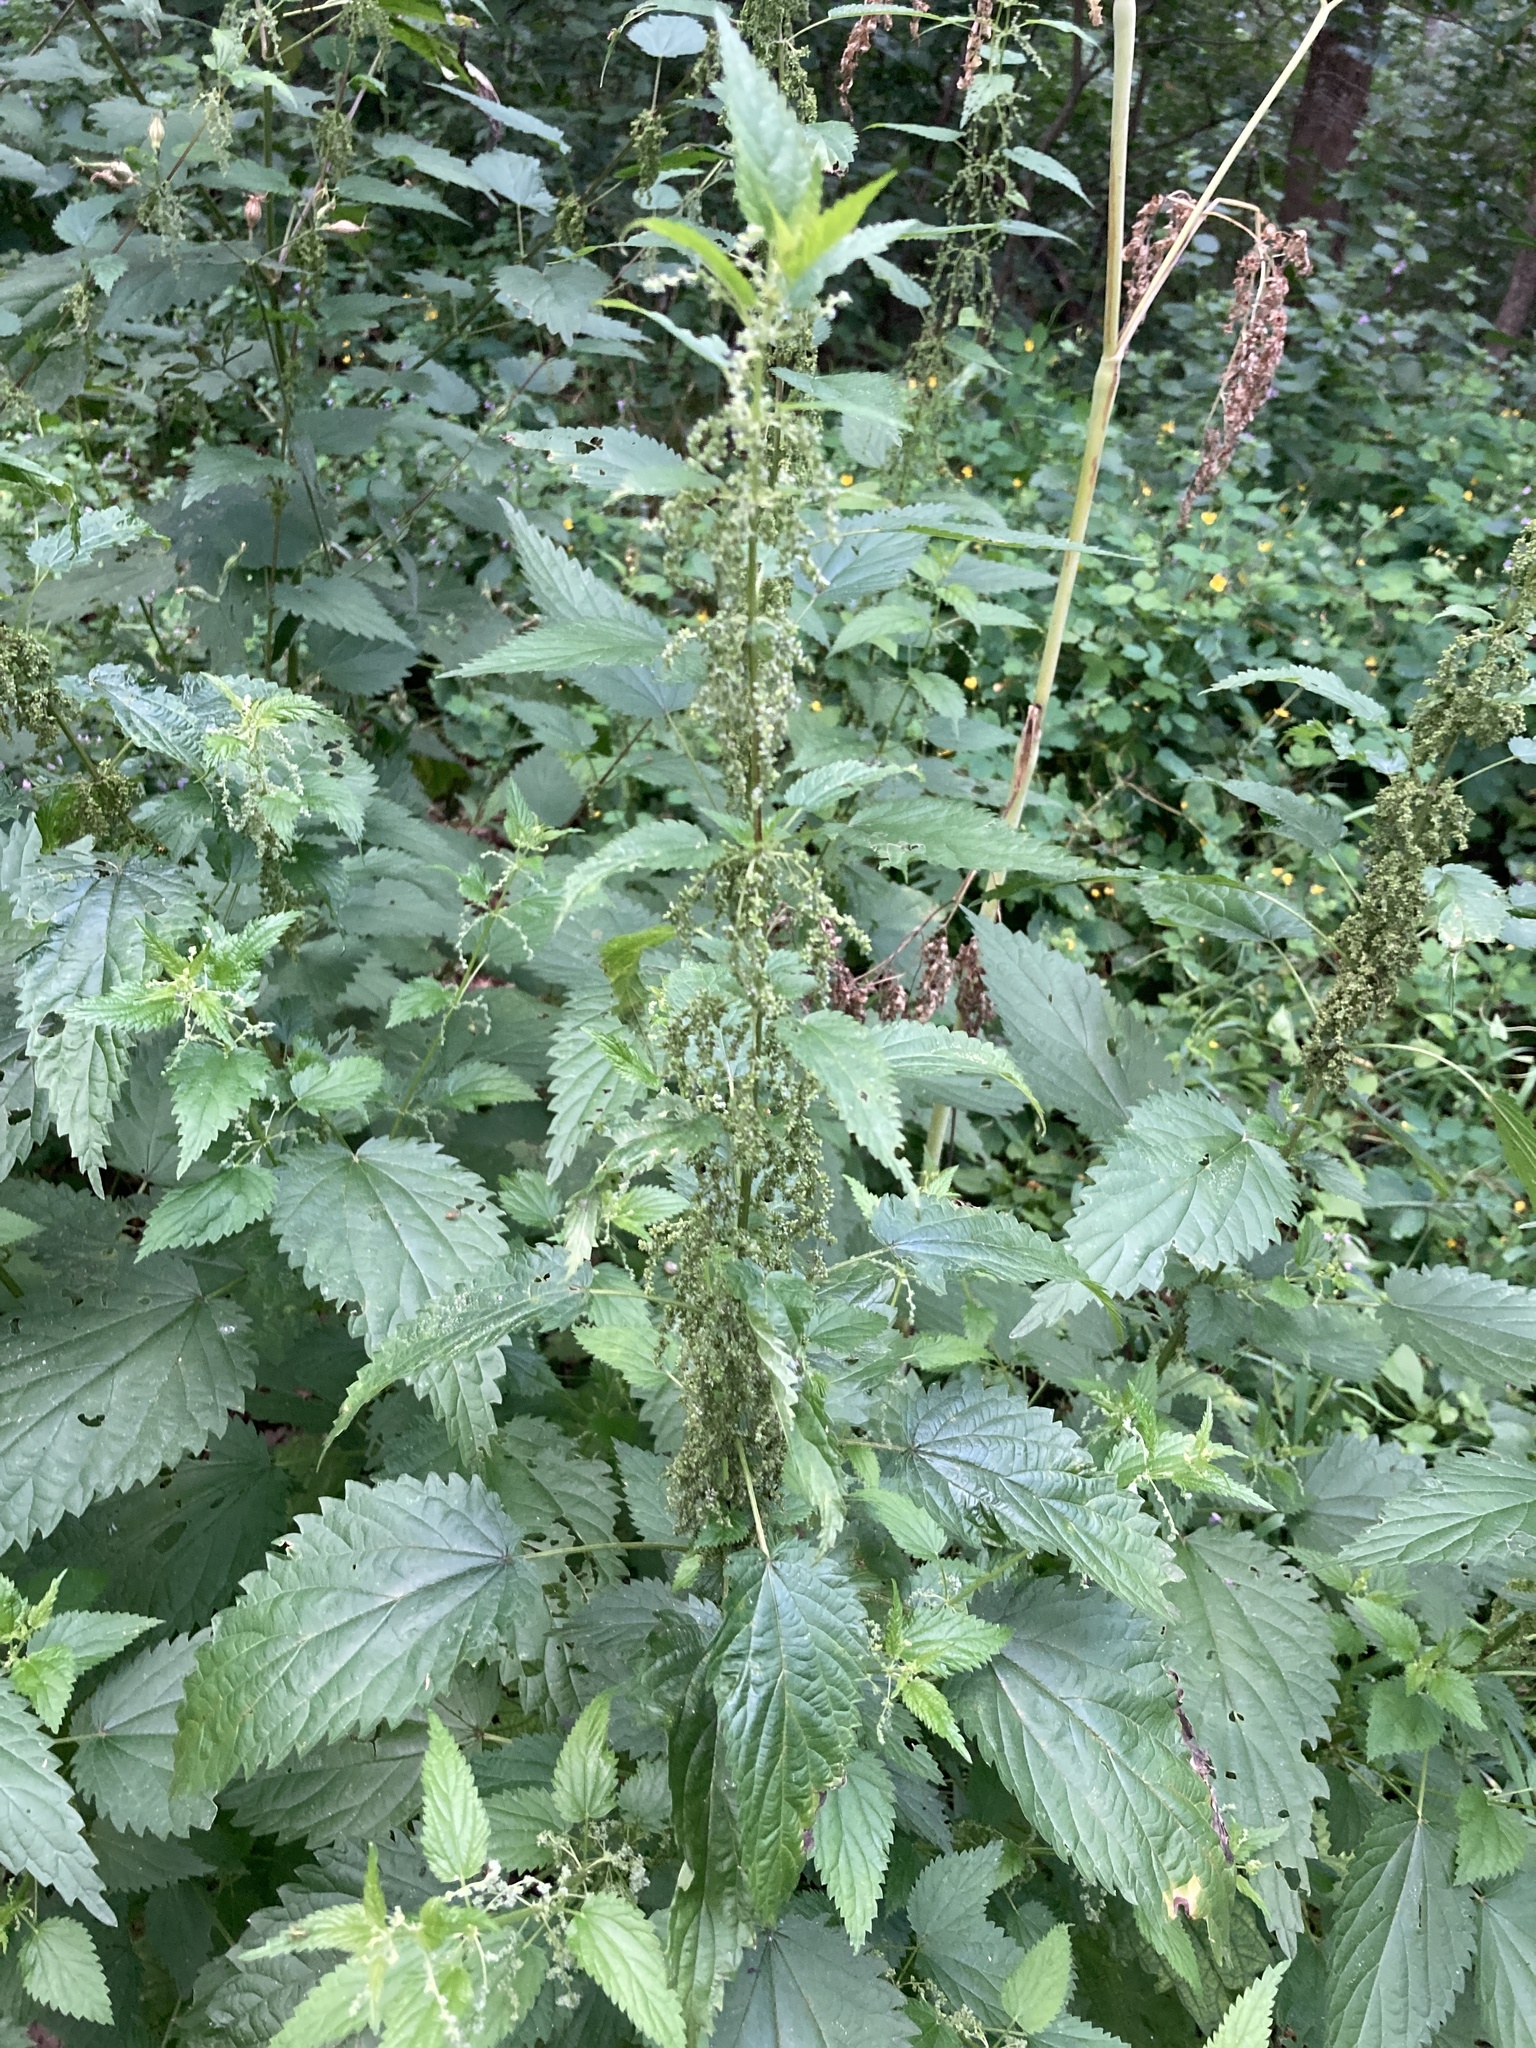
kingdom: Plantae
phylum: Tracheophyta
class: Magnoliopsida
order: Rosales
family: Urticaceae
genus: Urtica
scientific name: Urtica dioica
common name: Common nettle
